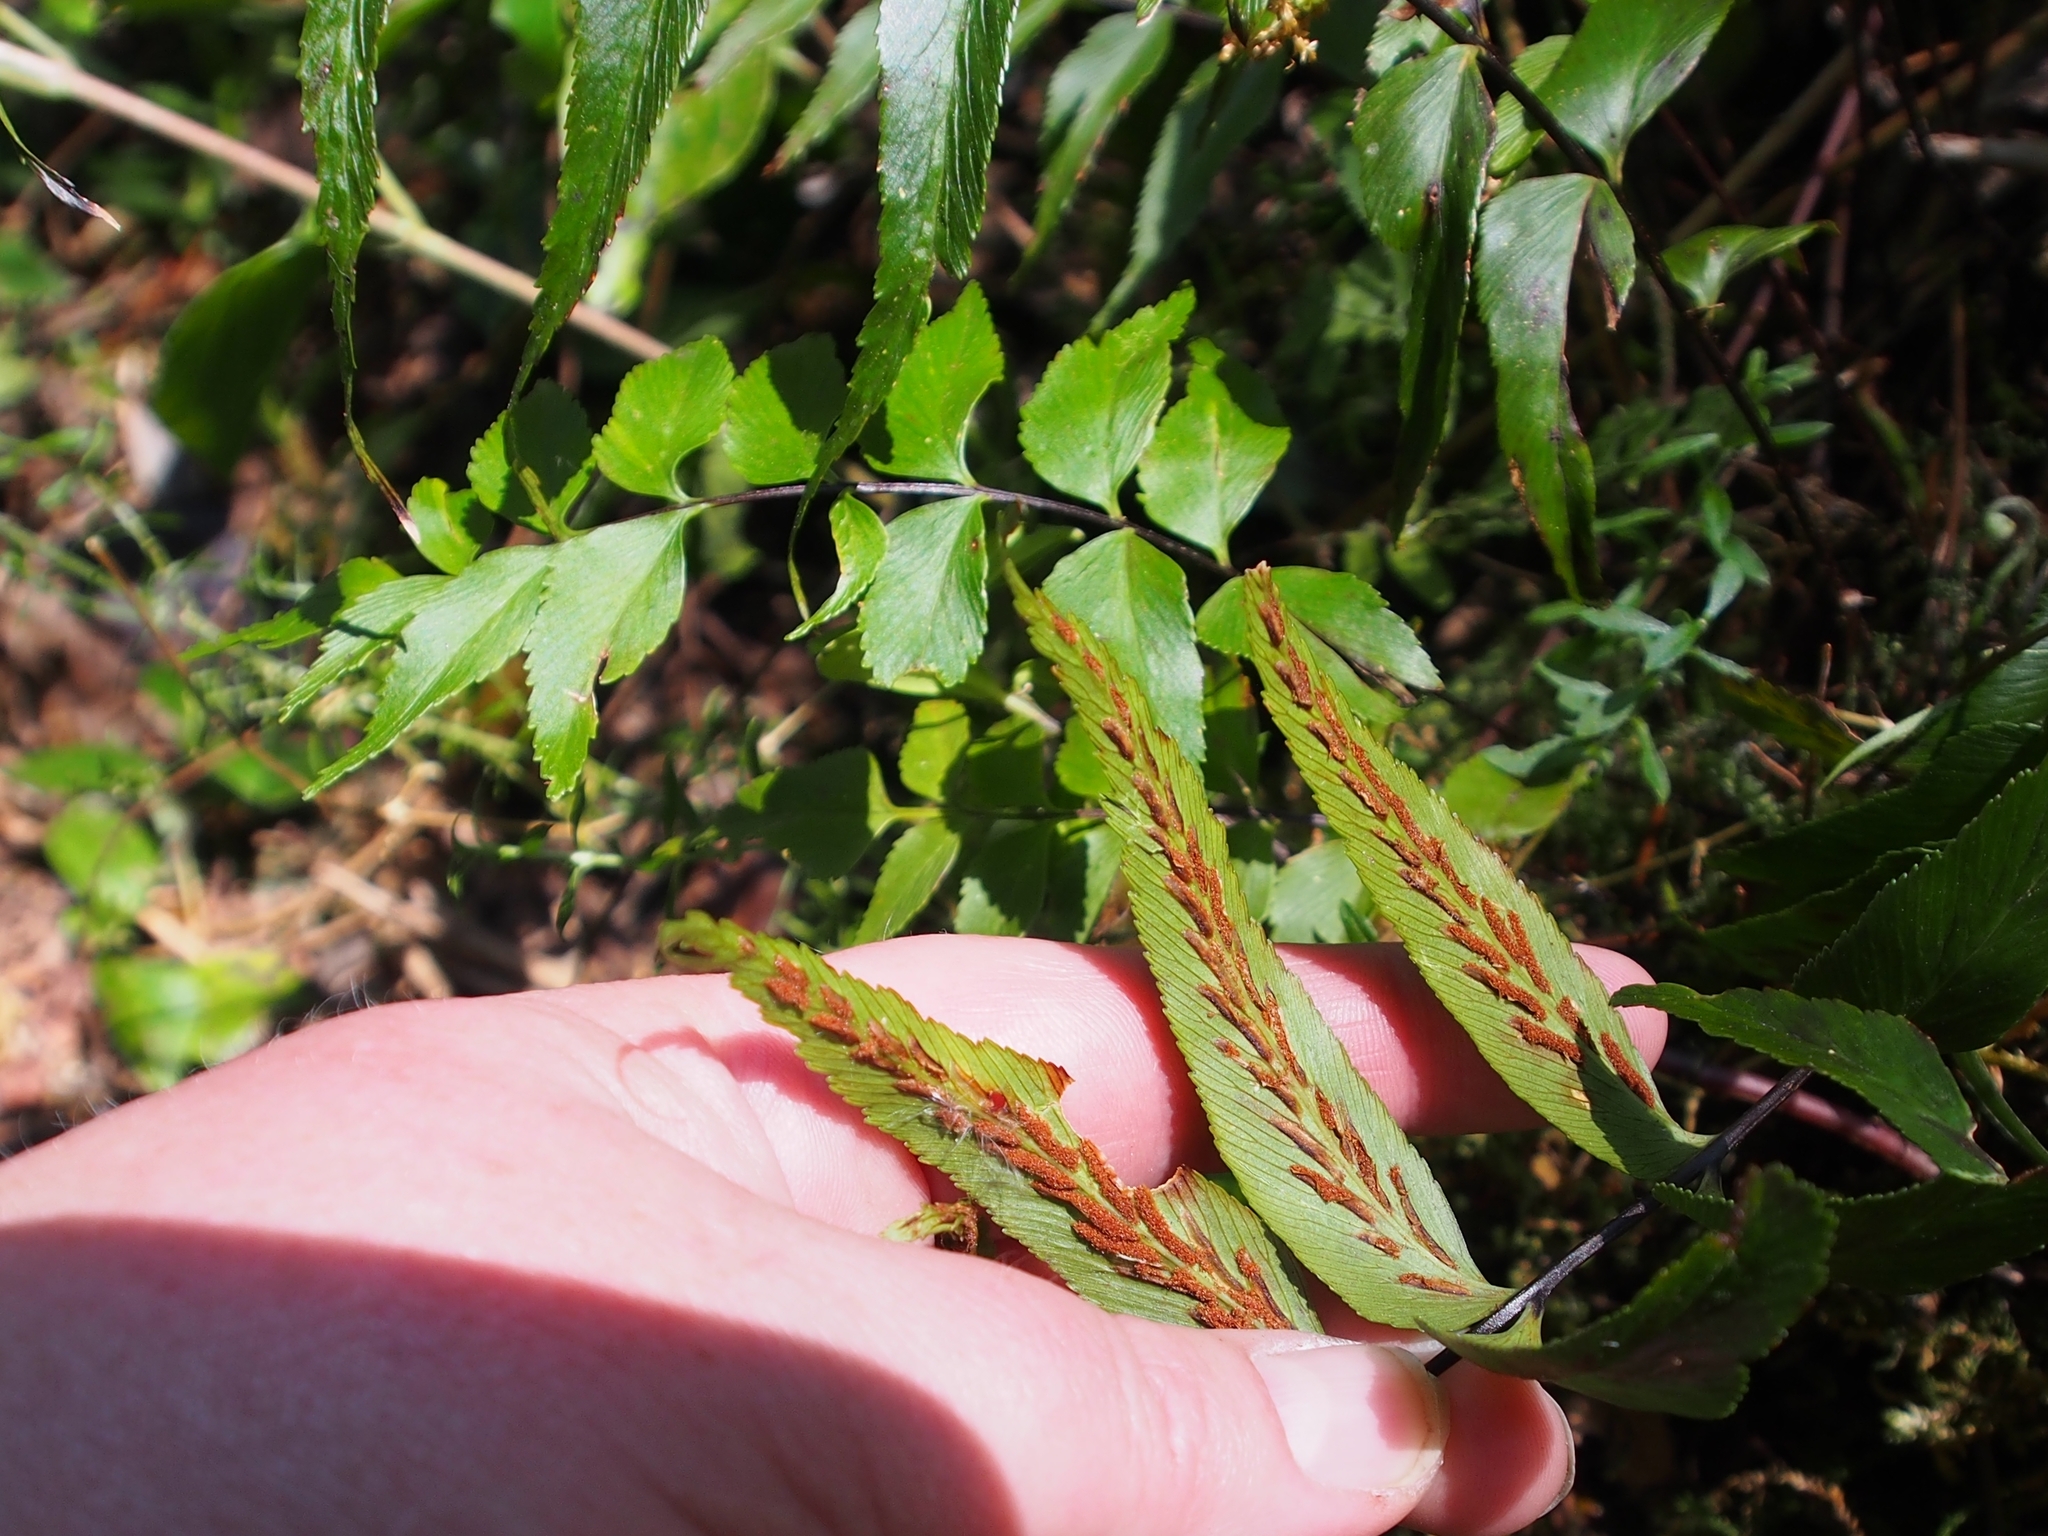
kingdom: Plantae
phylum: Tracheophyta
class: Polypodiopsida
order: Polypodiales
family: Aspleniaceae
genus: Asplenium
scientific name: Asplenium serra
